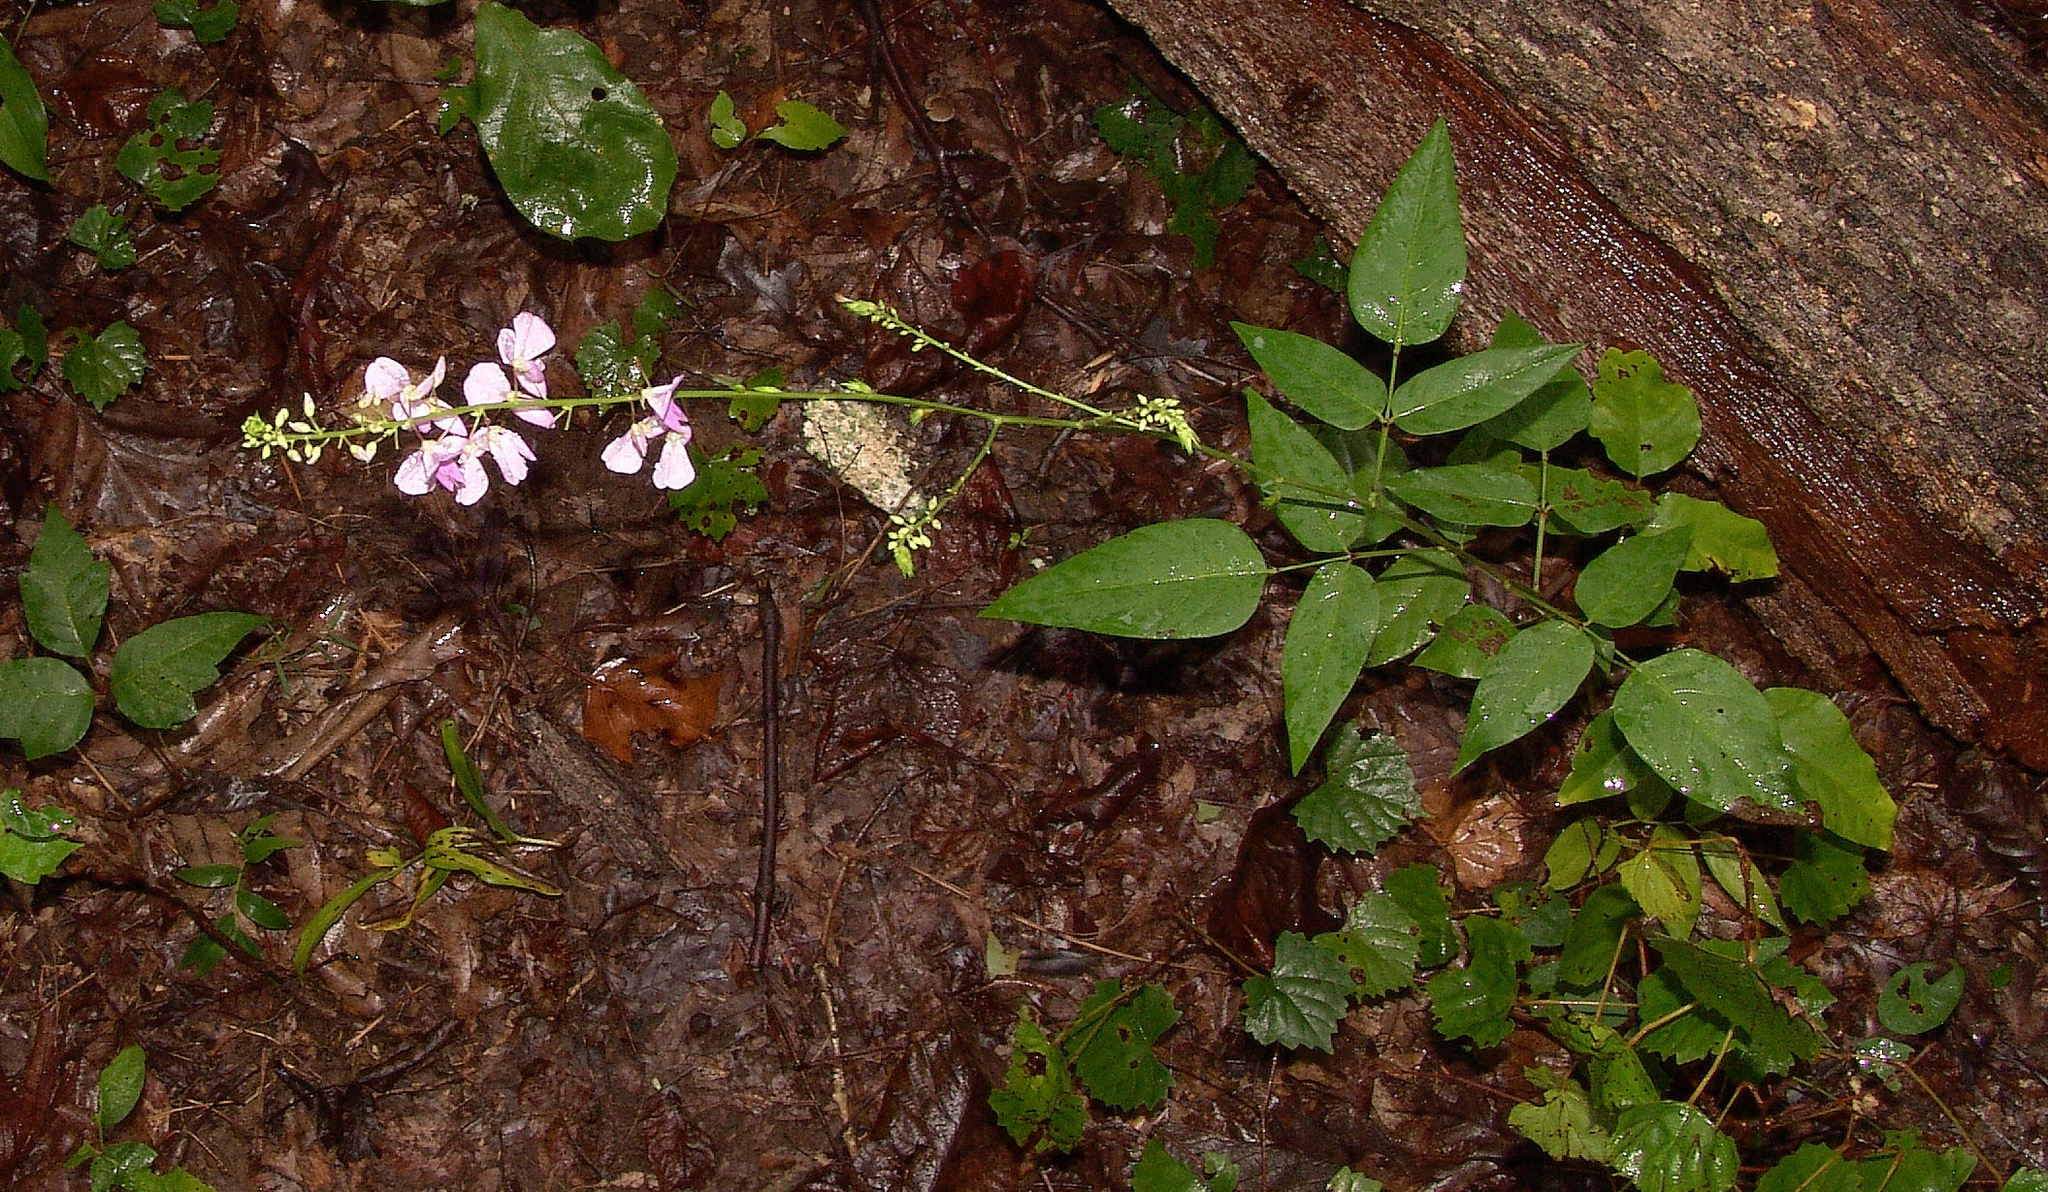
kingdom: Plantae
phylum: Tracheophyta
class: Magnoliopsida
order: Fabales
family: Fabaceae
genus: Desmodium
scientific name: Desmodium cuspidatum
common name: Big tick trefoil
